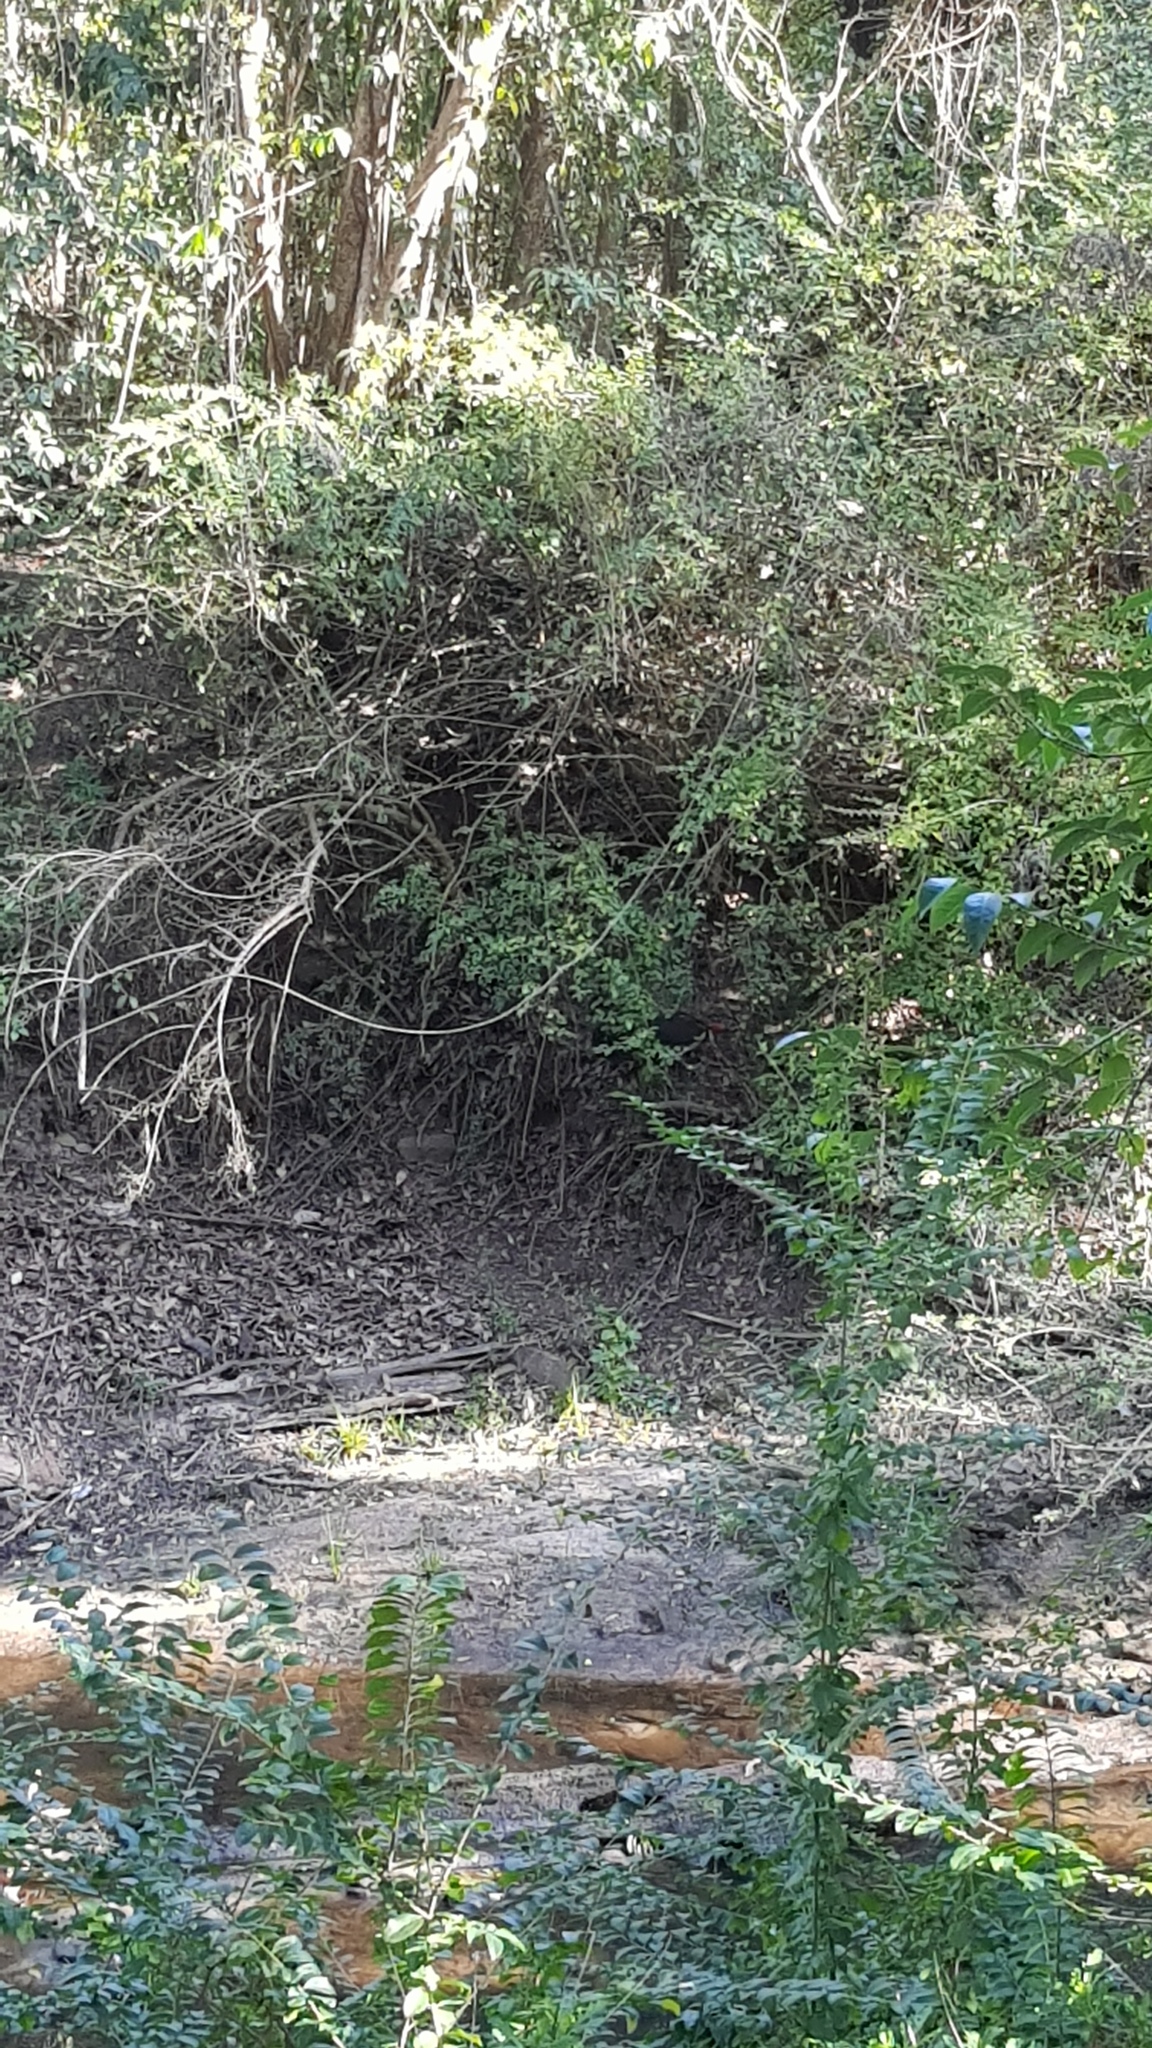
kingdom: Animalia
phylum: Chordata
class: Aves
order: Galliformes
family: Megapodiidae
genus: Alectura
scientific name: Alectura lathami
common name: Australian brushturkey
